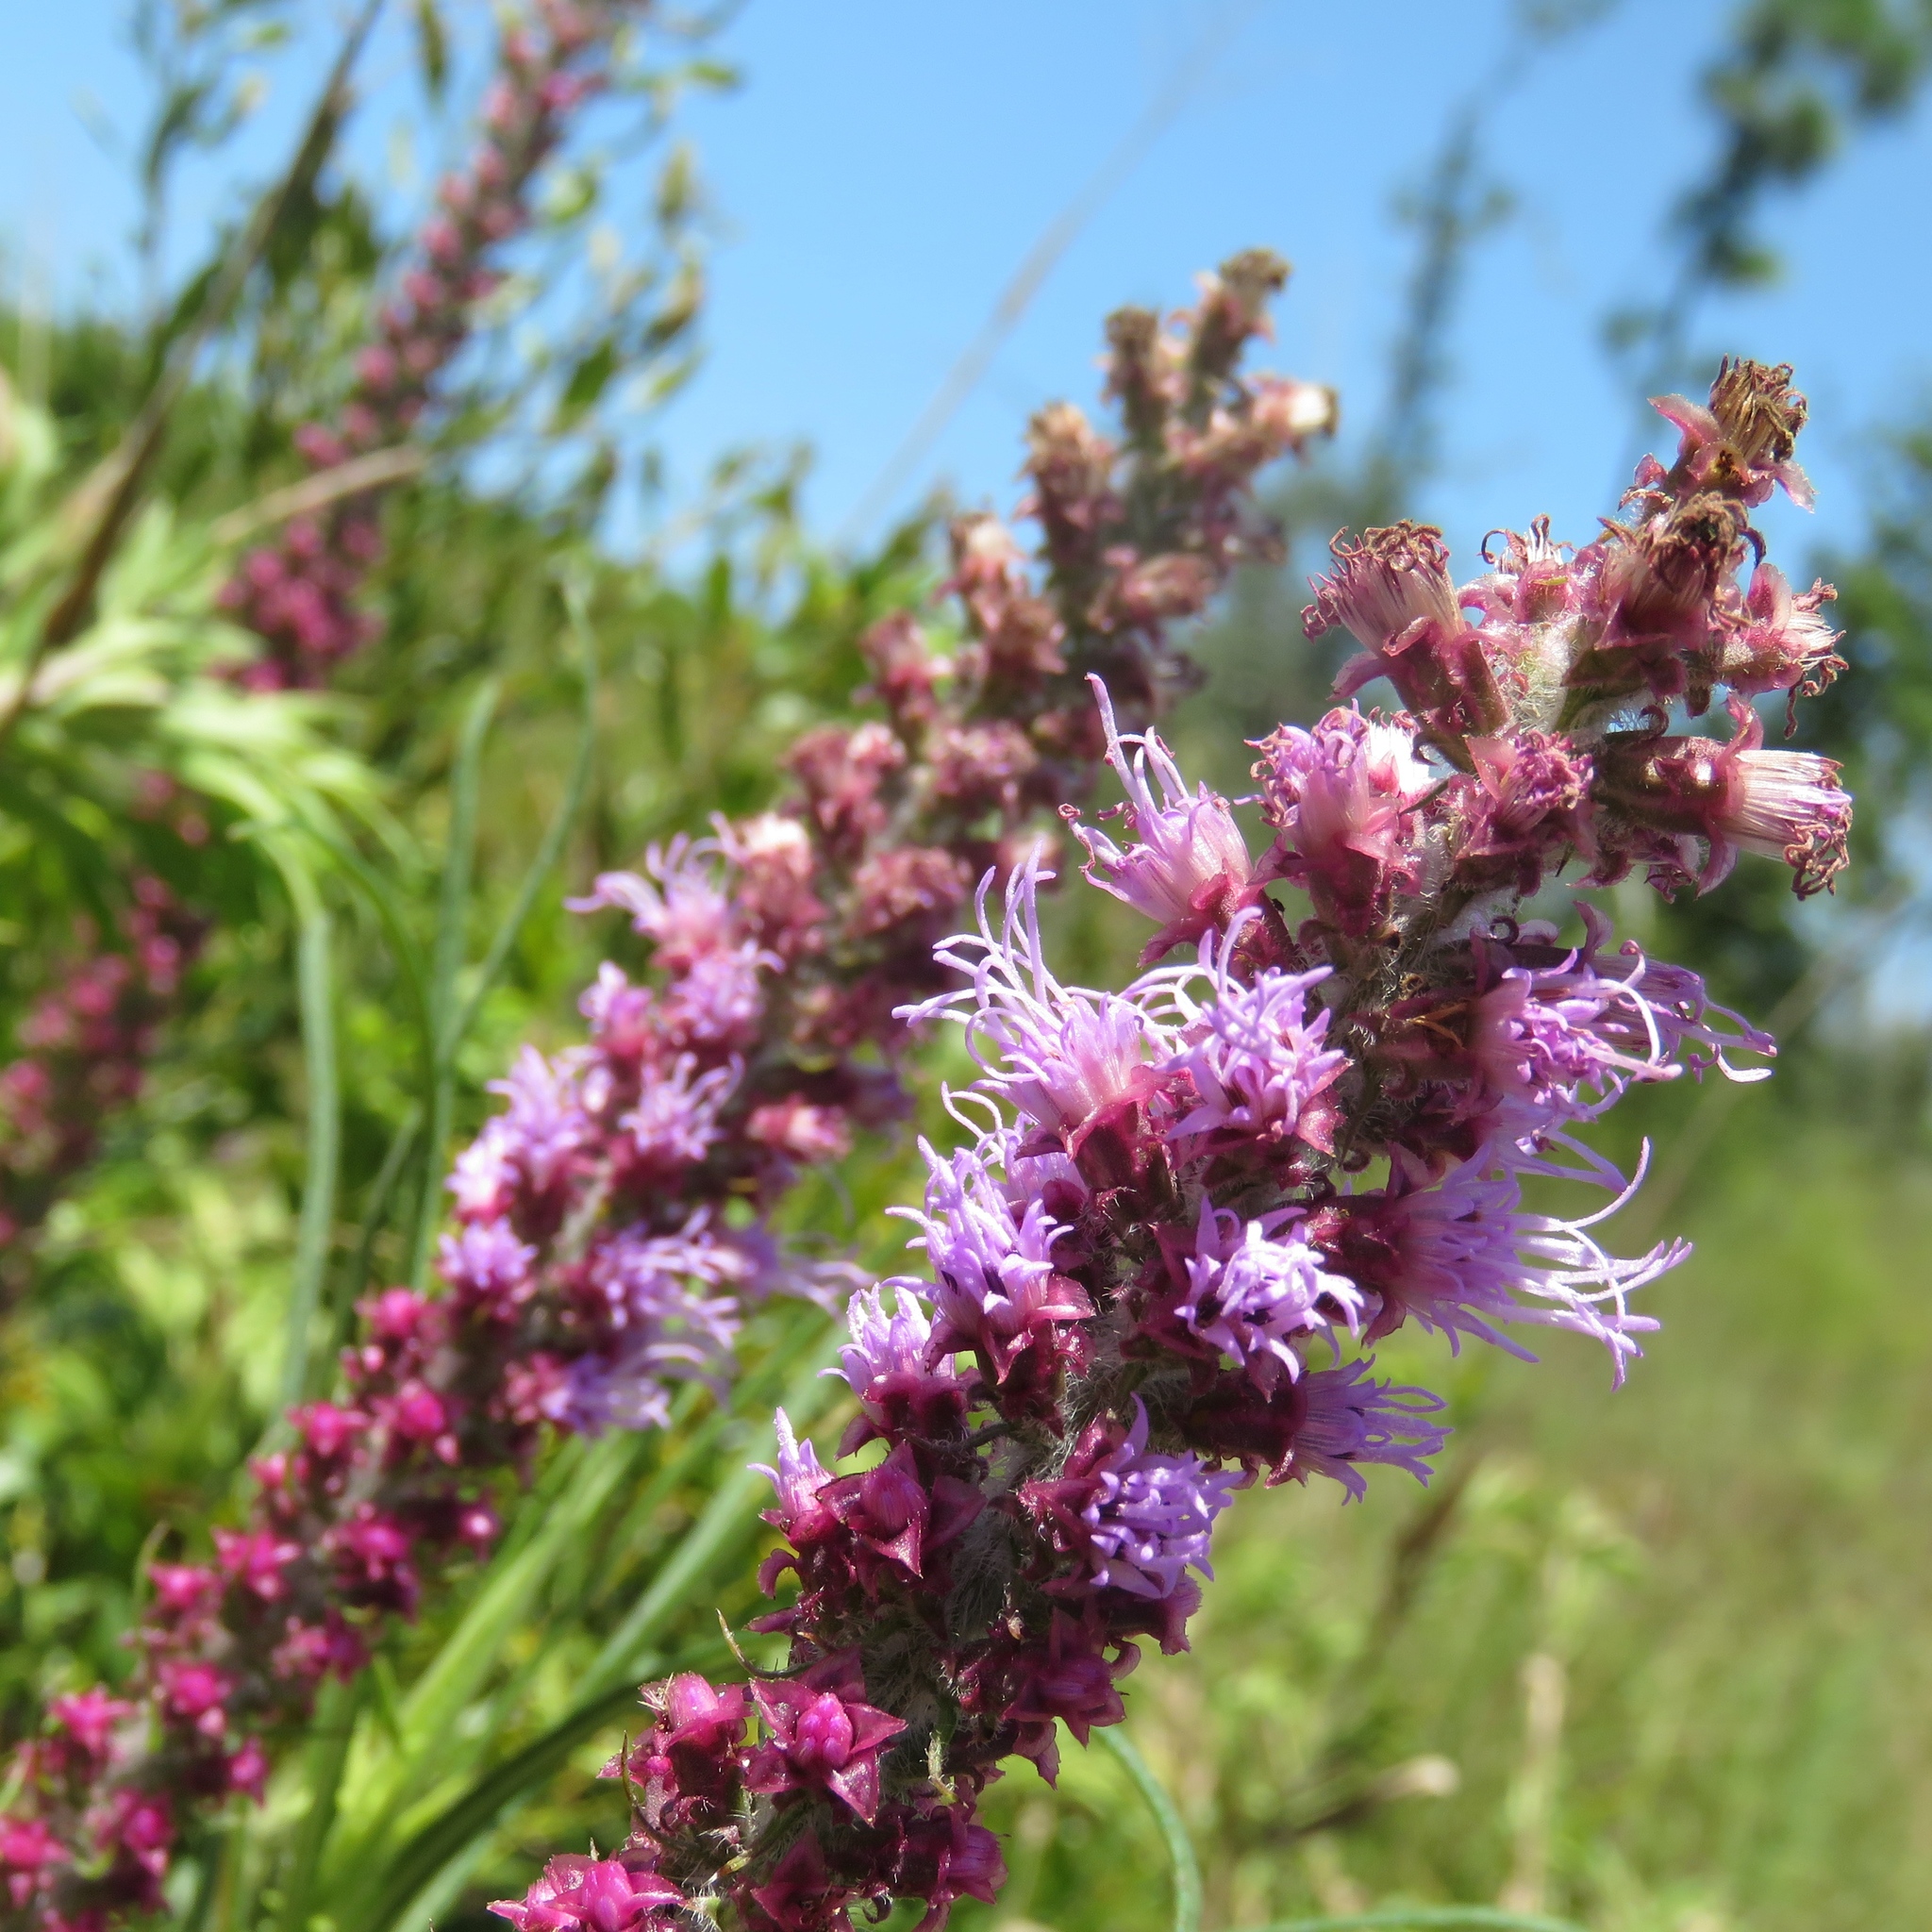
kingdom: Plantae
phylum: Tracheophyta
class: Magnoliopsida
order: Asterales
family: Asteraceae
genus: Liatris
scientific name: Liatris pycnostachya
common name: Cattail gayfeather
